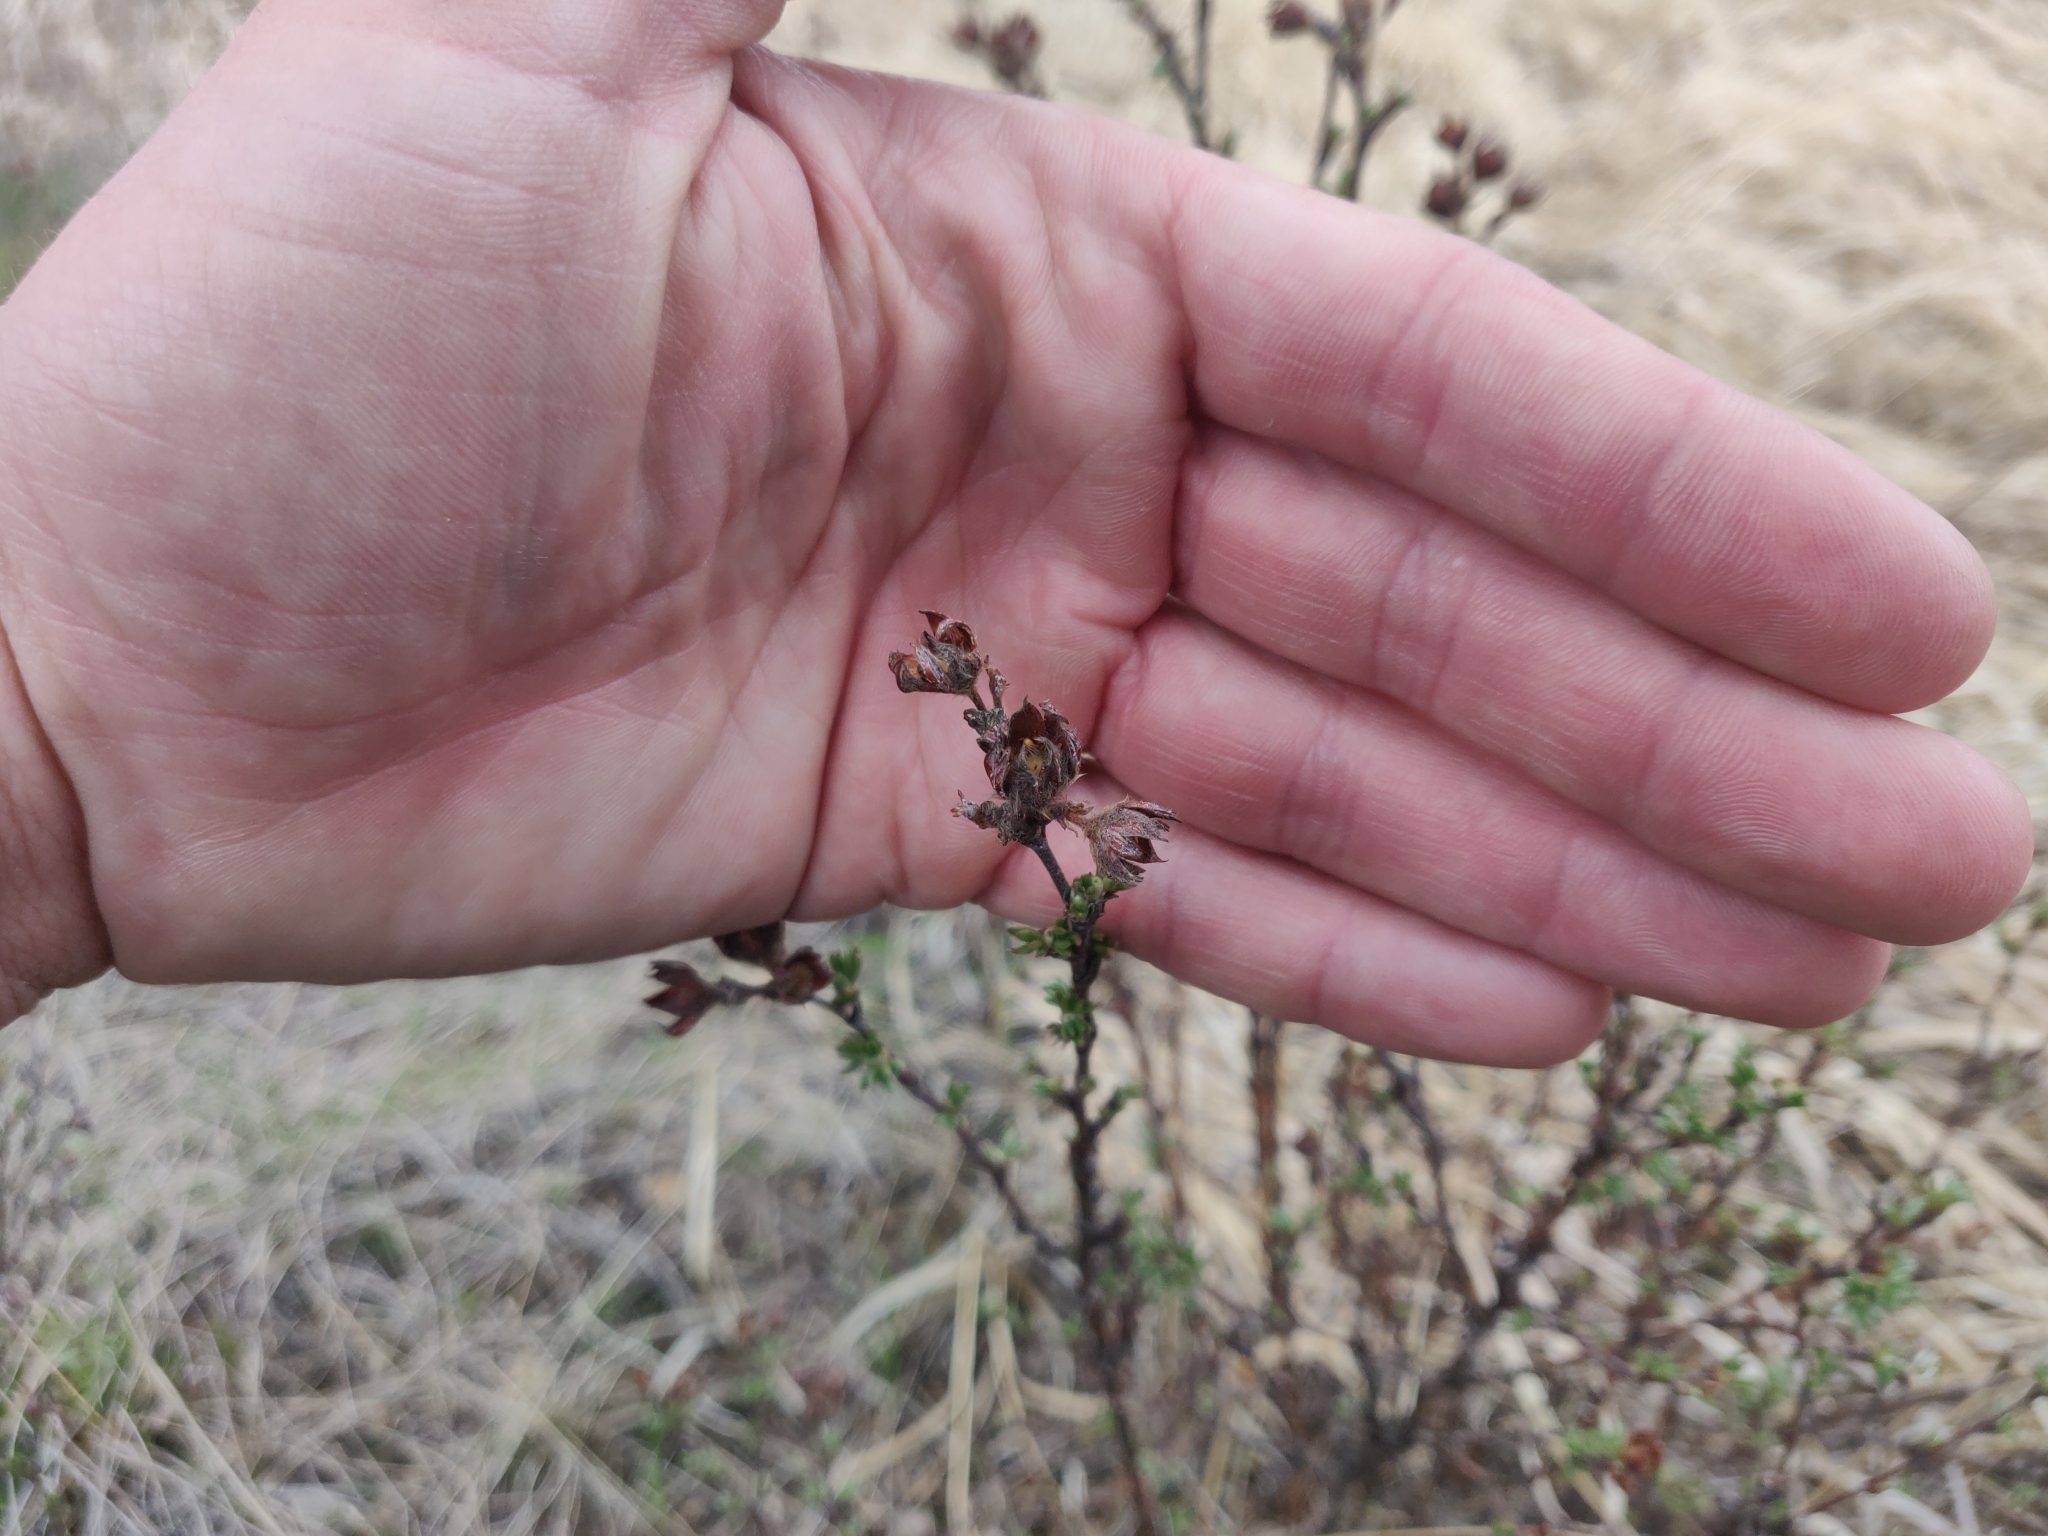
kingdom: Plantae
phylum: Tracheophyta
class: Magnoliopsida
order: Rosales
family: Rosaceae
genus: Dasiphora
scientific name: Dasiphora fruticosa
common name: Shrubby cinquefoil
